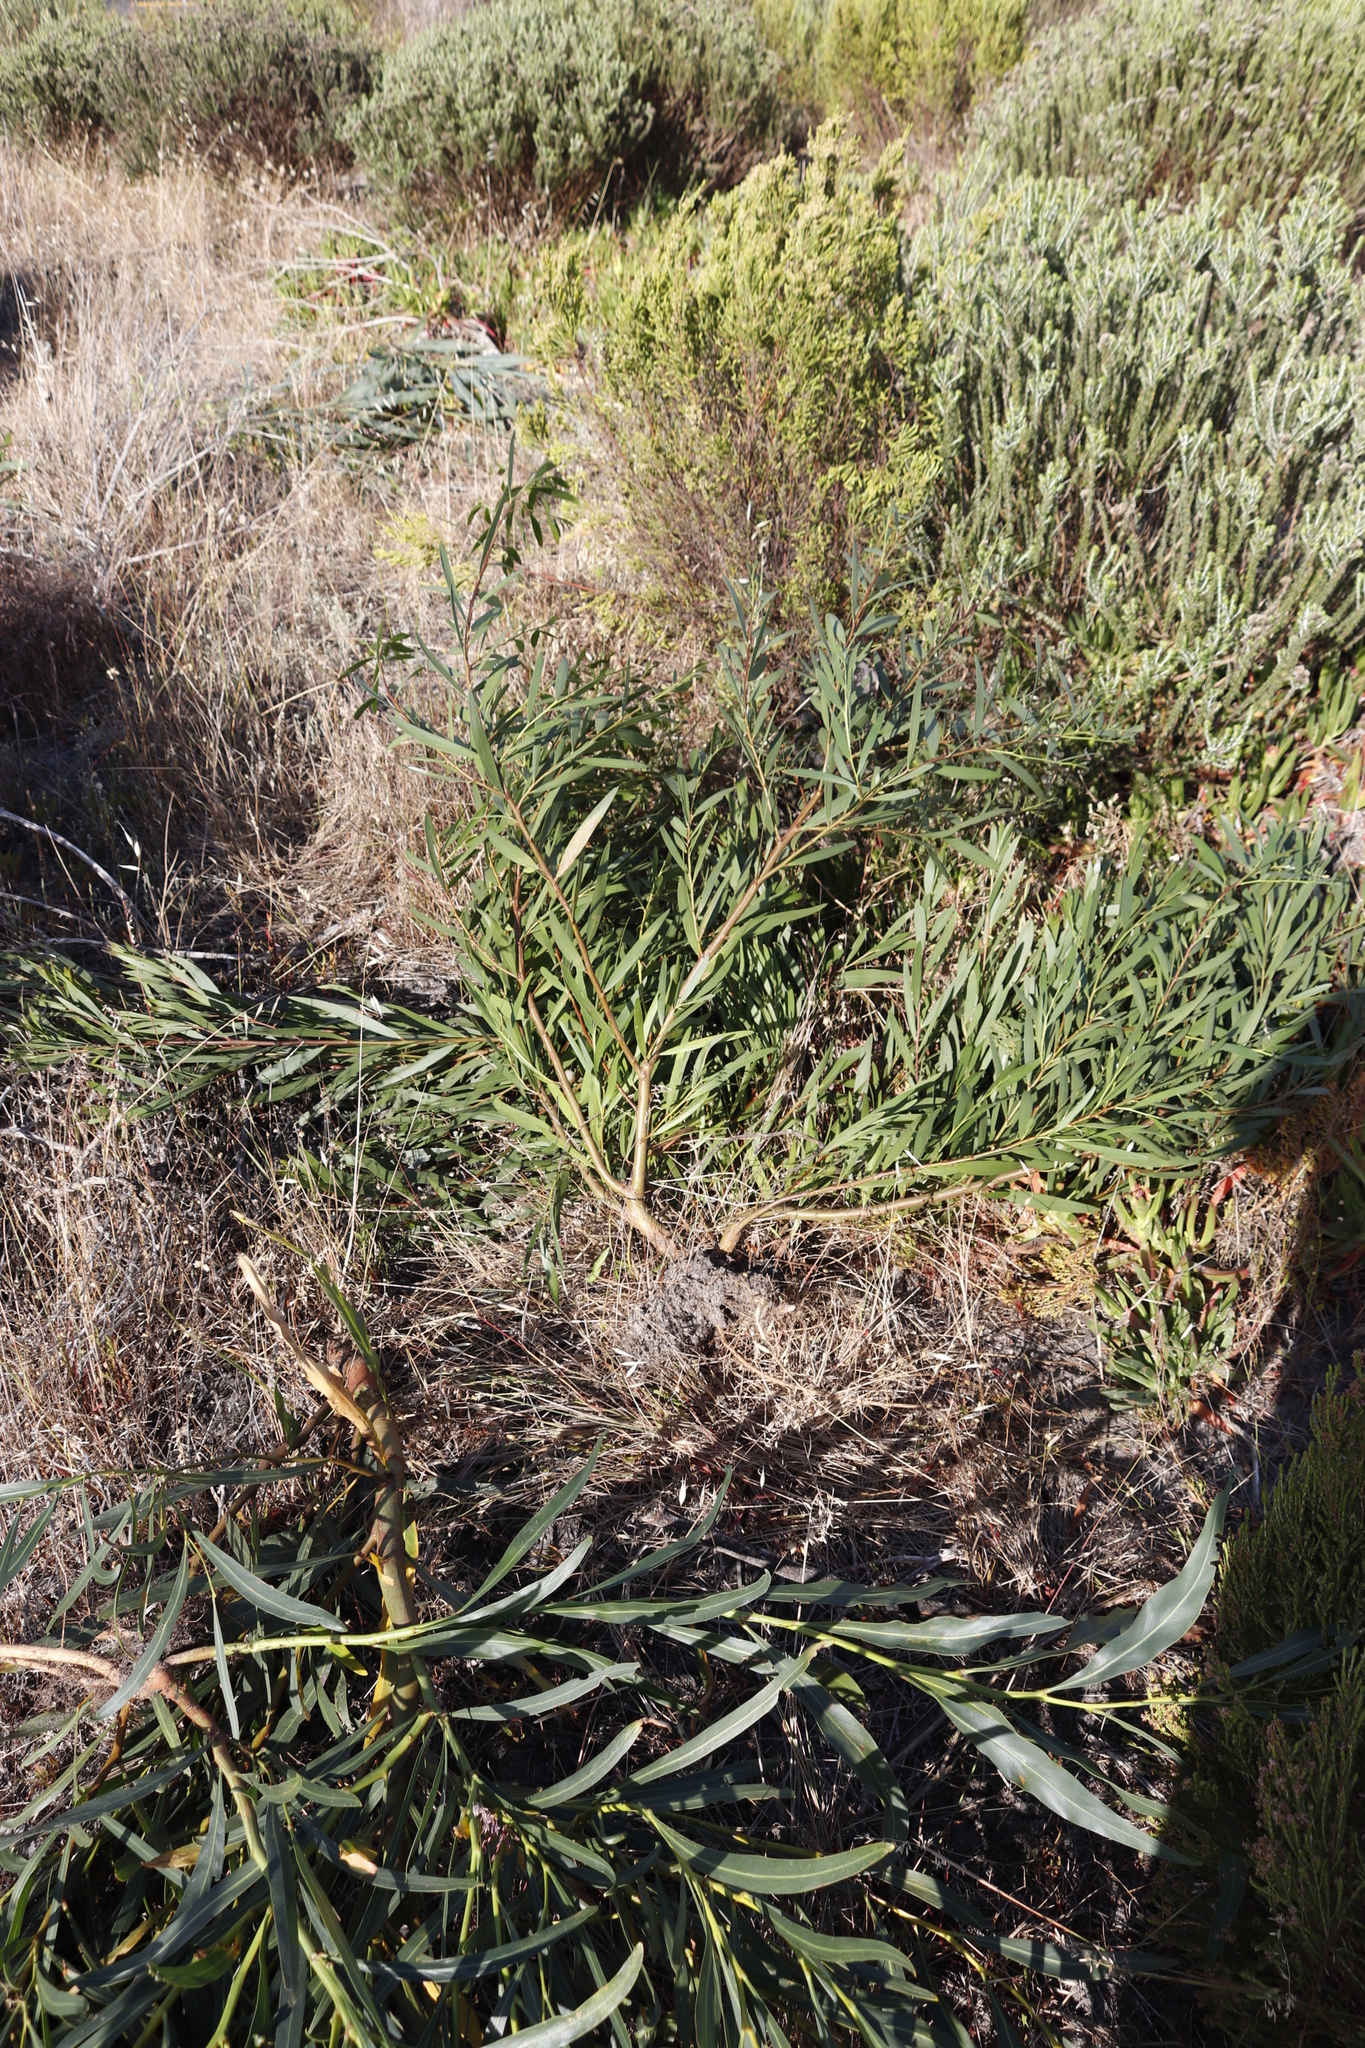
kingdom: Plantae
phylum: Tracheophyta
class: Magnoliopsida
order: Fabales
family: Fabaceae
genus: Acacia
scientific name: Acacia longifolia
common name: Sydney golden wattle
